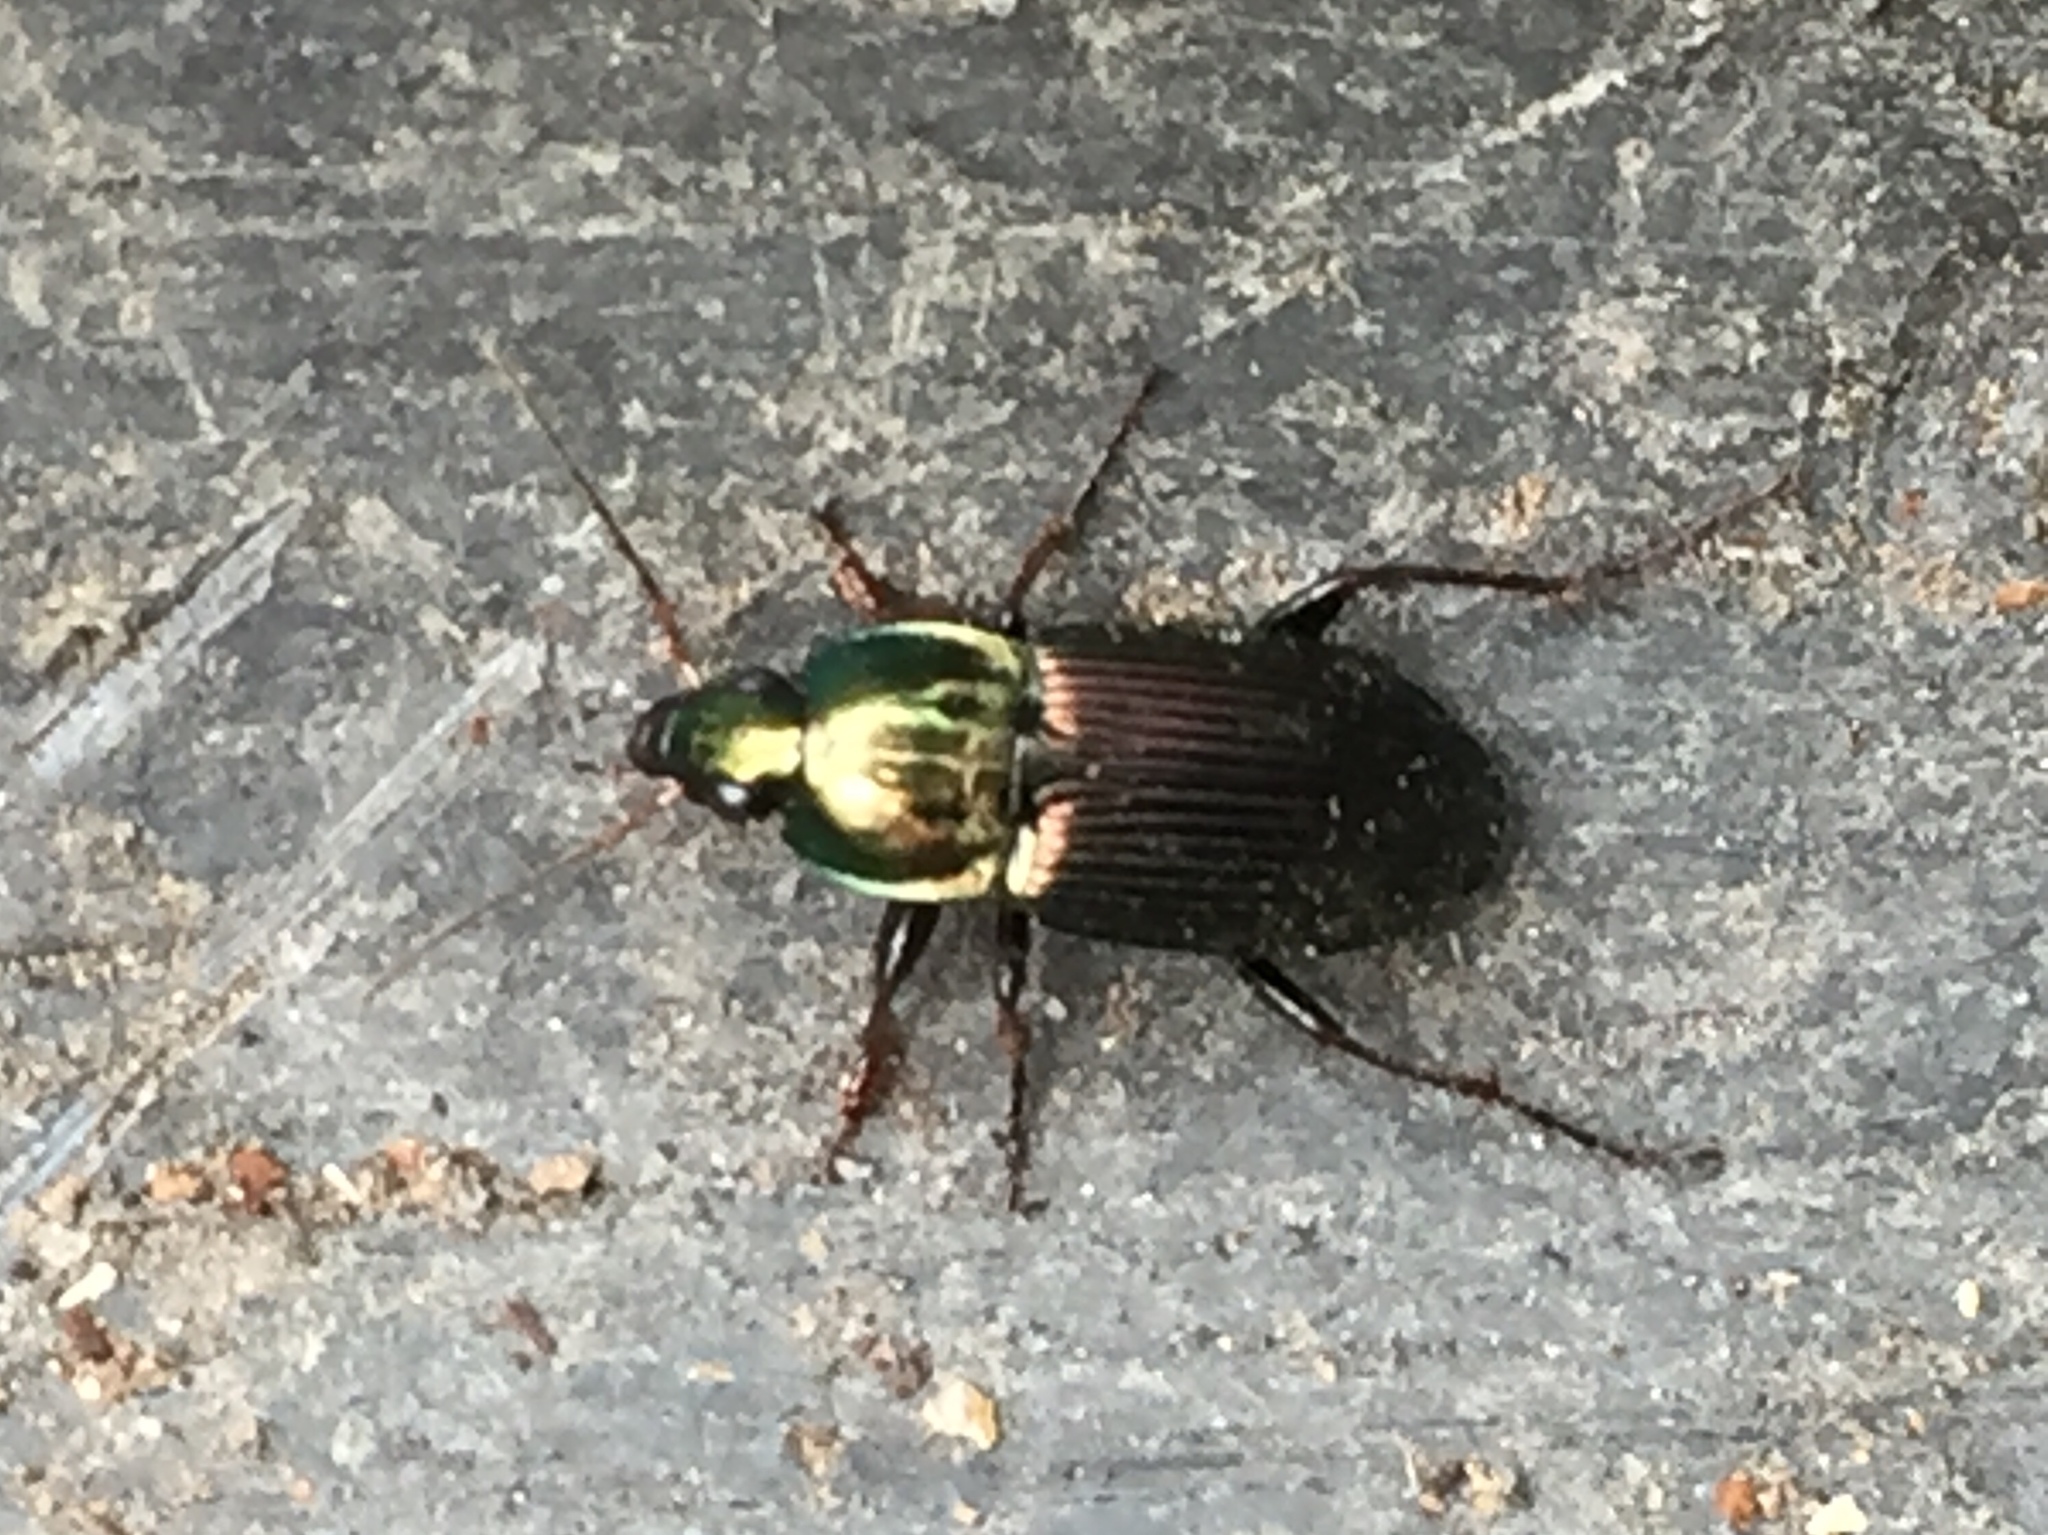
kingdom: Animalia
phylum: Arthropoda
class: Insecta
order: Coleoptera
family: Carabidae
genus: Poecilus
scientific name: Poecilus lucublandus
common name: Woodland ground beetle
